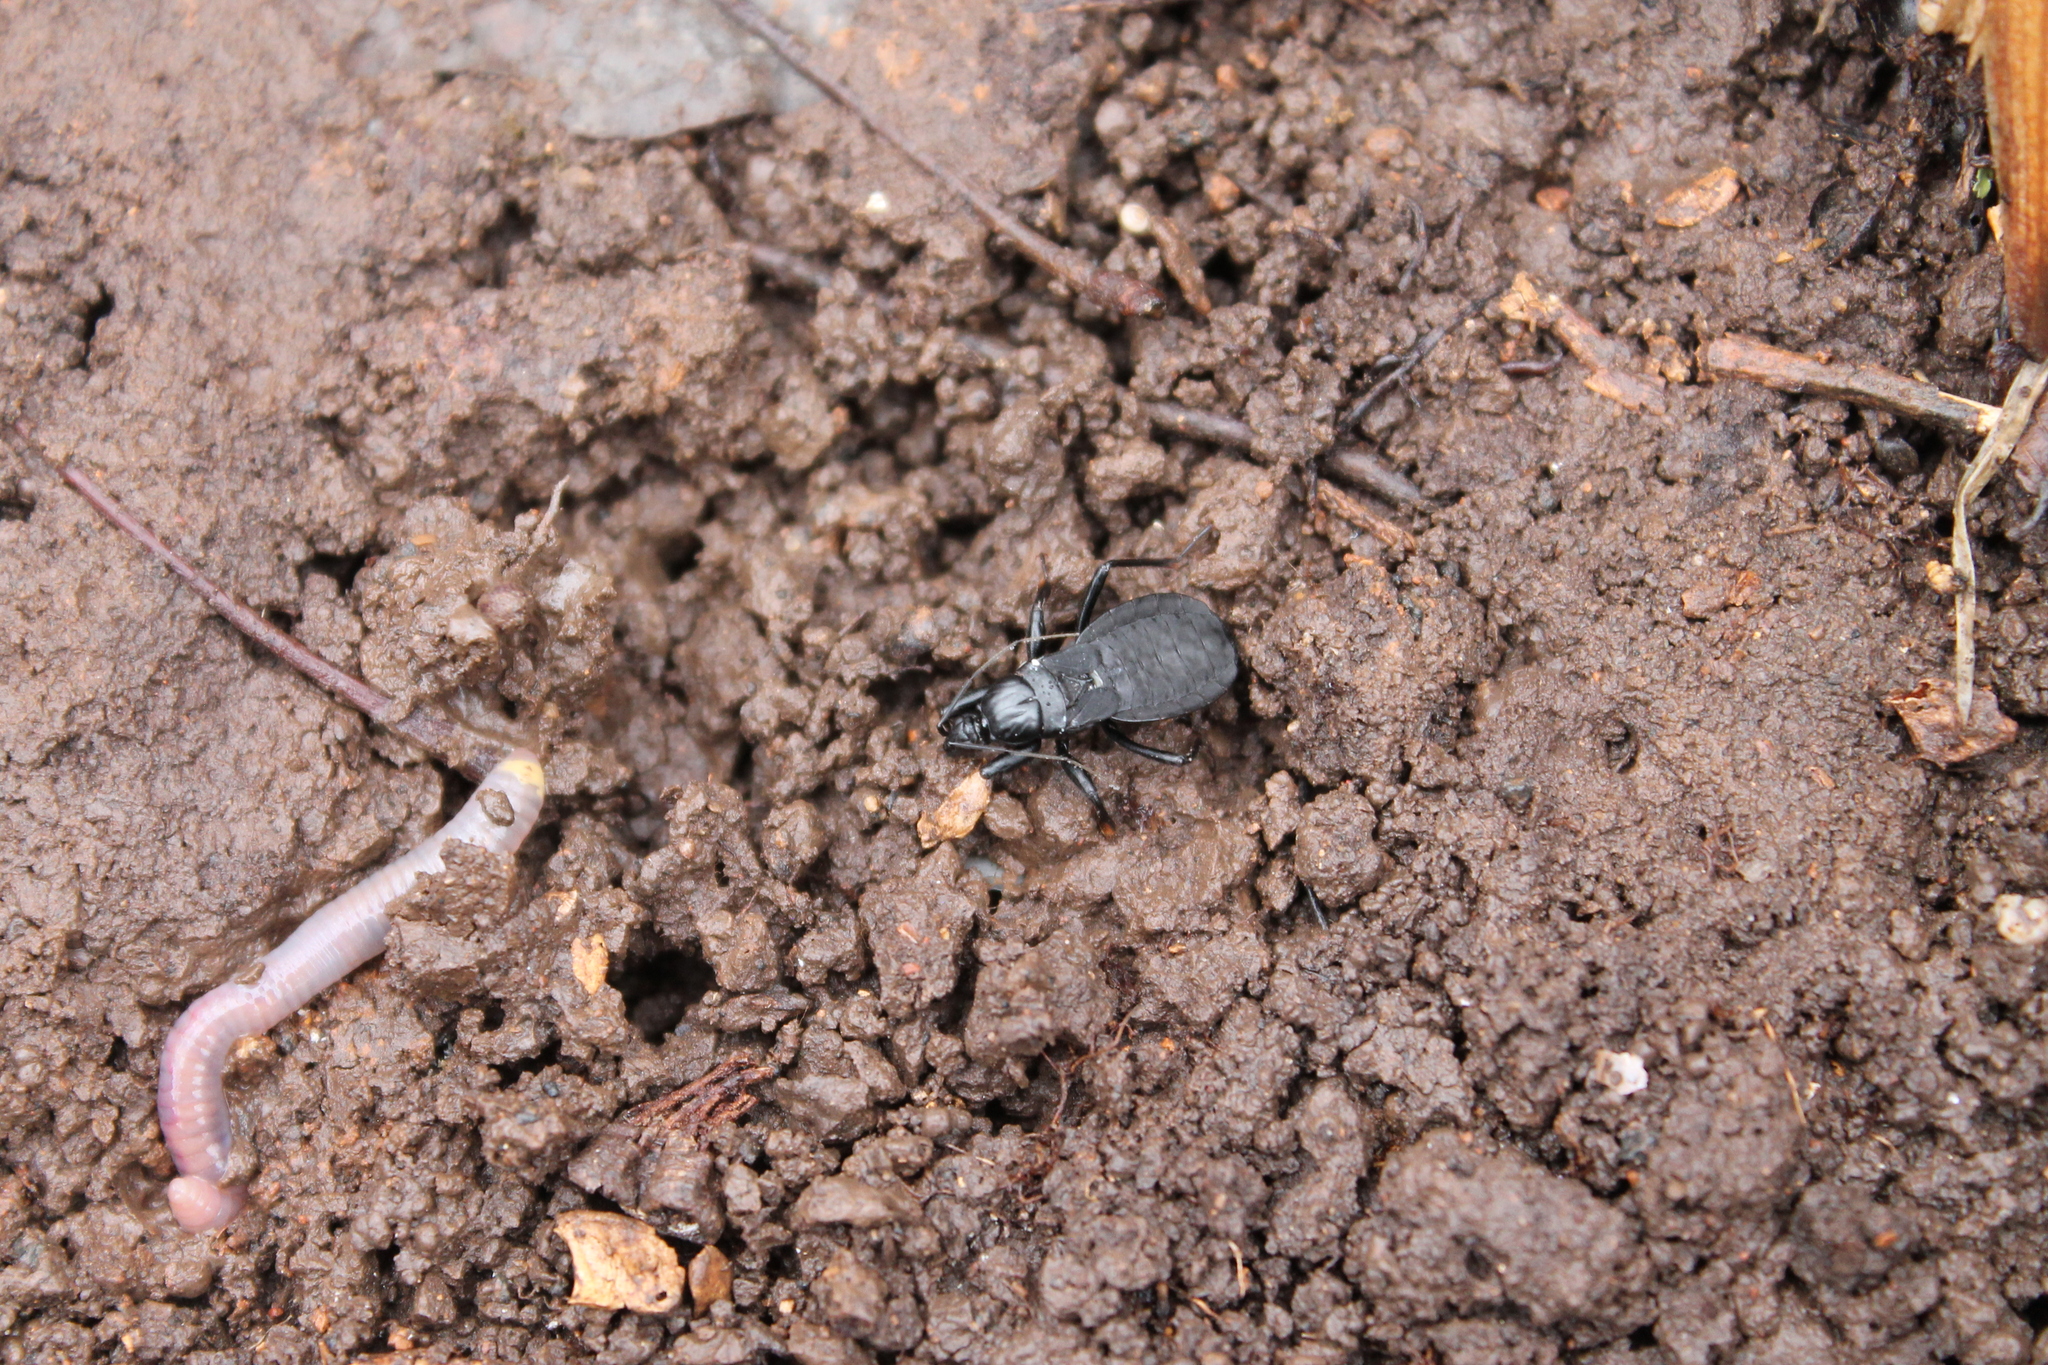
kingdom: Animalia
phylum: Arthropoda
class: Insecta
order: Hemiptera
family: Reduviidae
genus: Melanolestes
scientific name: Melanolestes picipes
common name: Assassin bug
